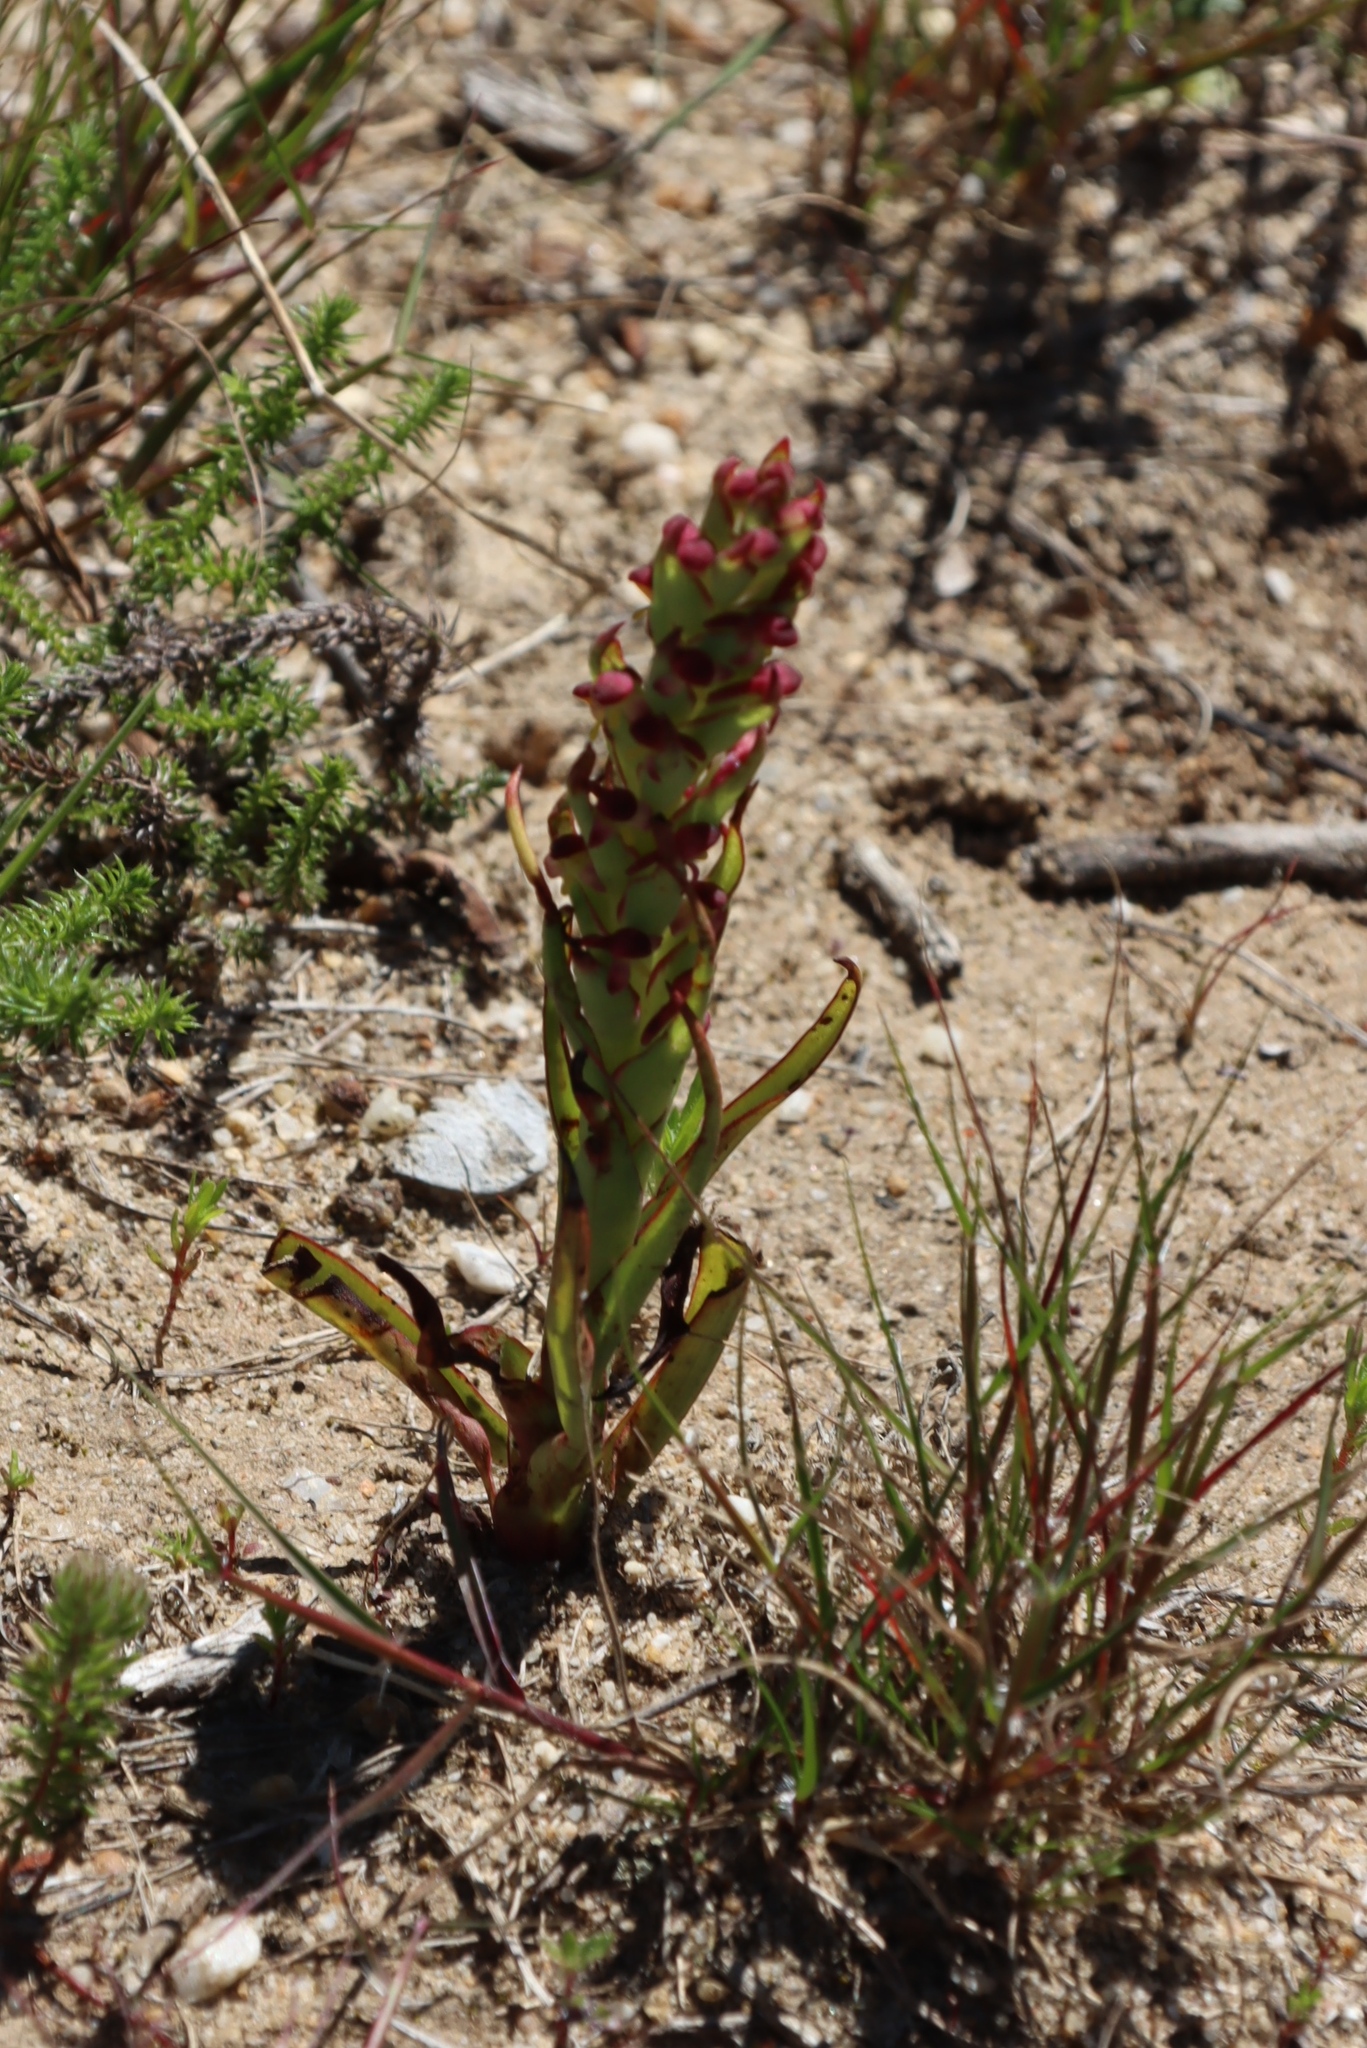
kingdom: Plantae
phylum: Tracheophyta
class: Liliopsida
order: Asparagales
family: Orchidaceae
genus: Disa
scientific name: Disa bracteata
